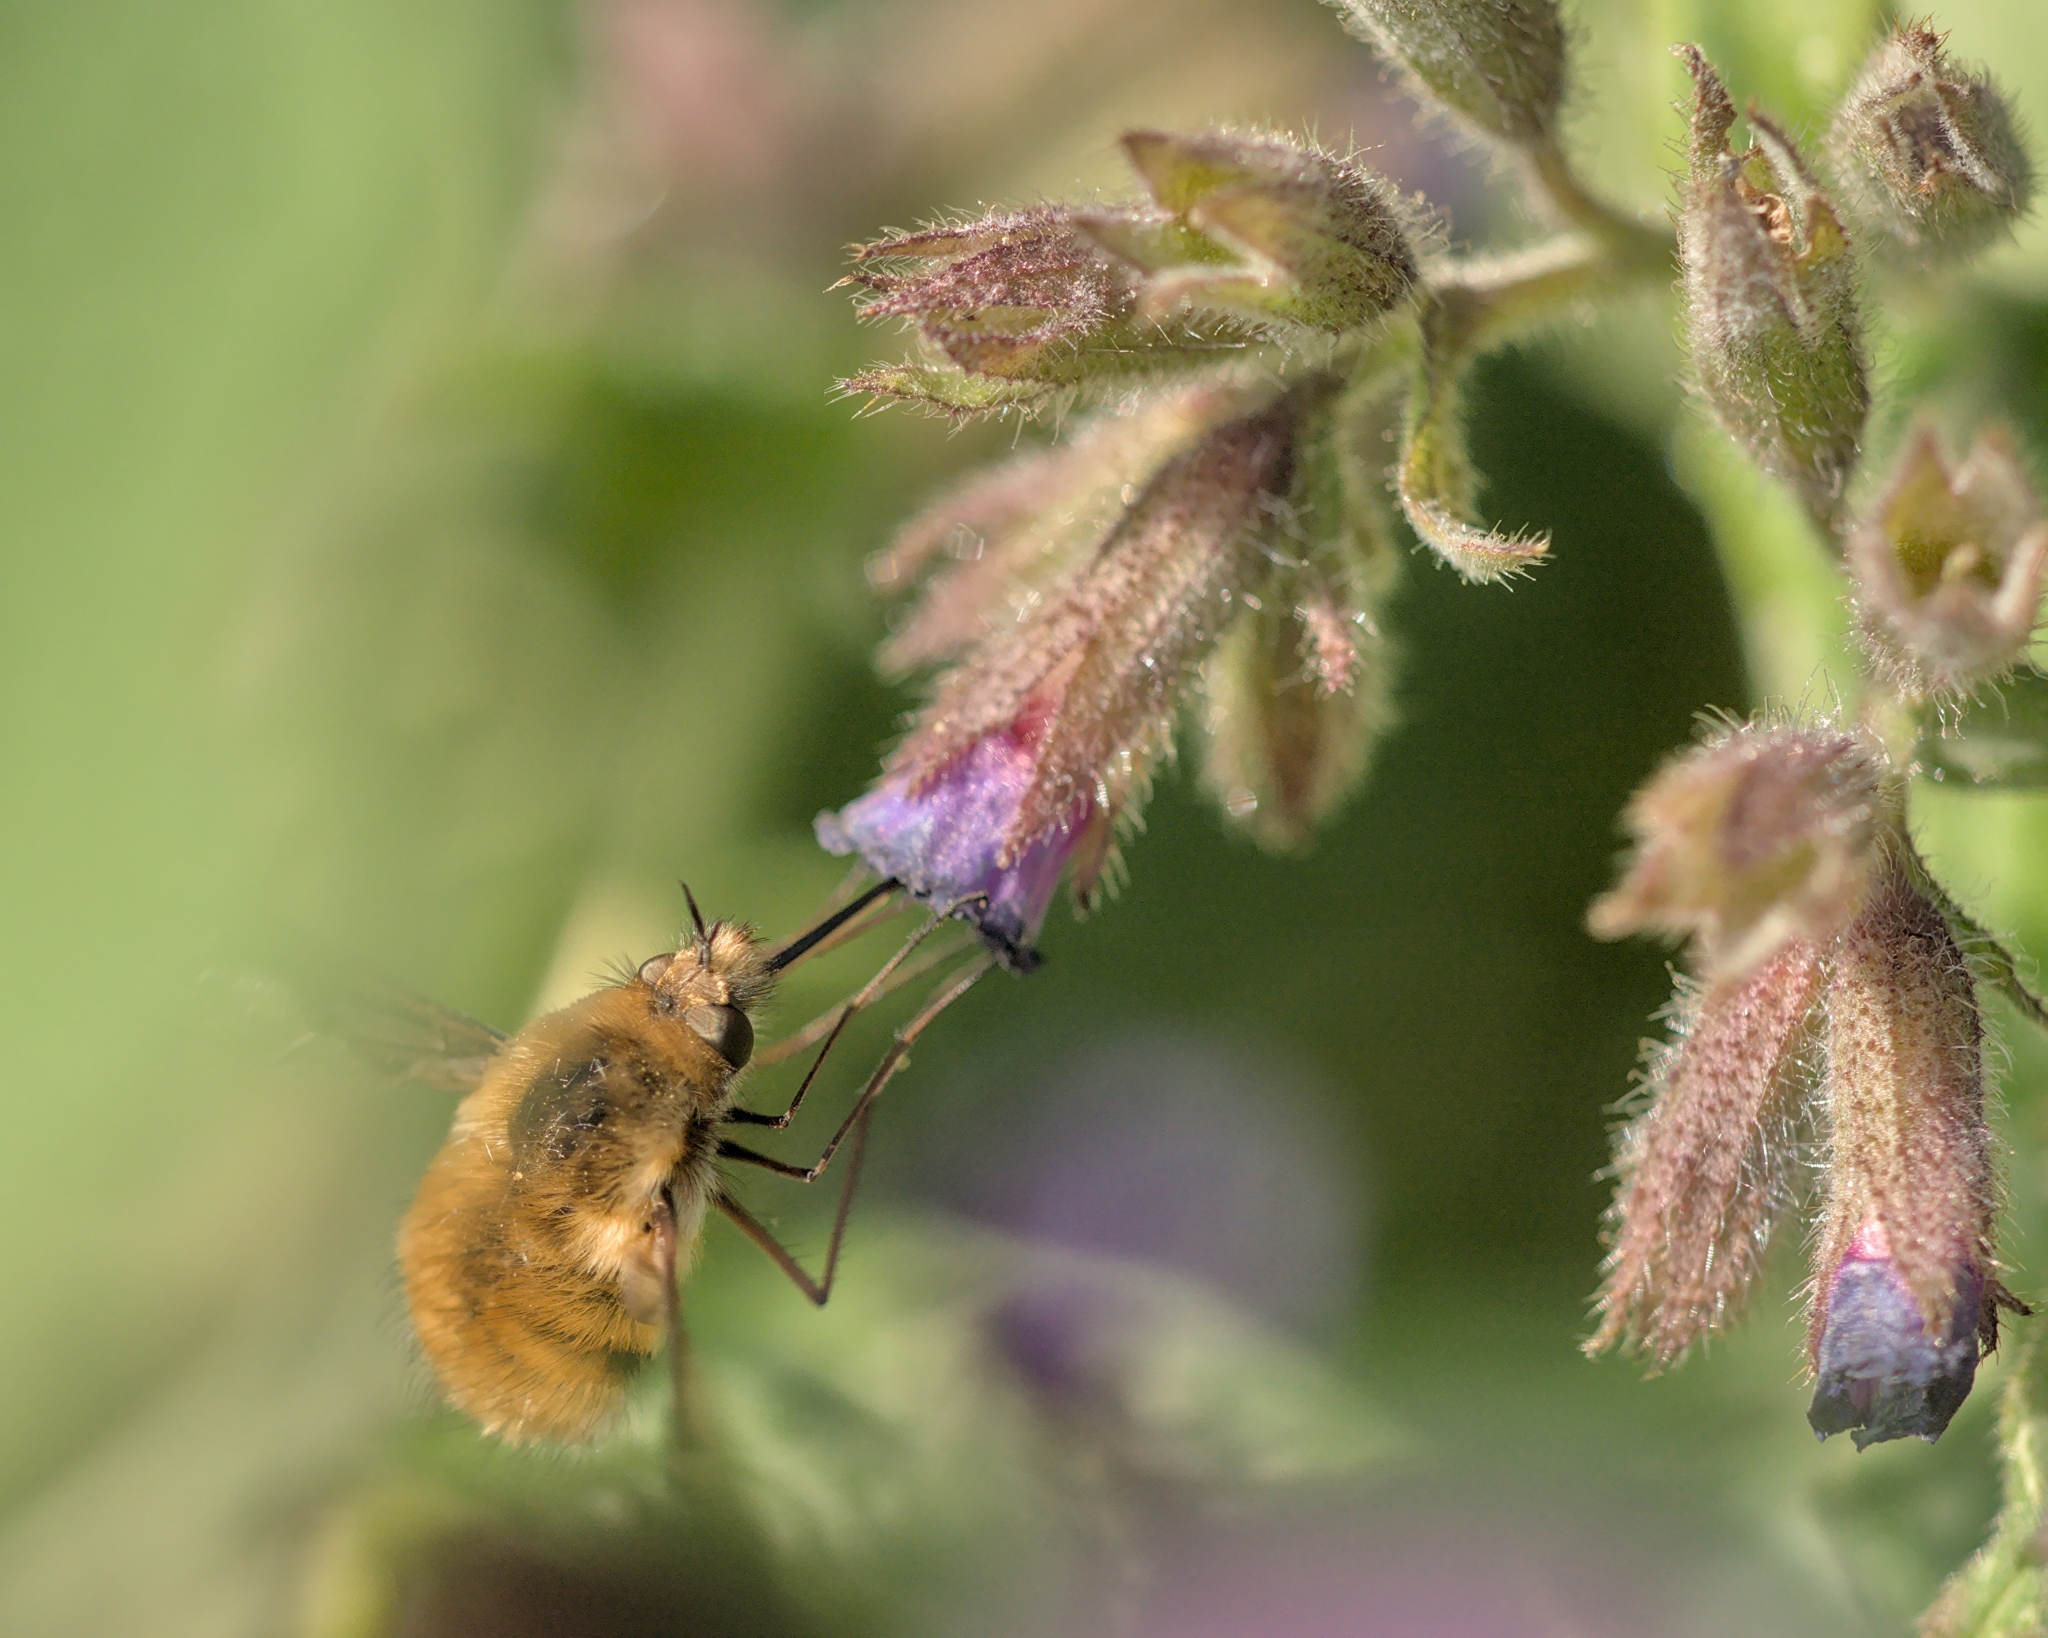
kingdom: Animalia
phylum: Arthropoda
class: Insecta
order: Diptera
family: Bombyliidae
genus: Bombylius
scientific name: Bombylius major
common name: Bee fly
